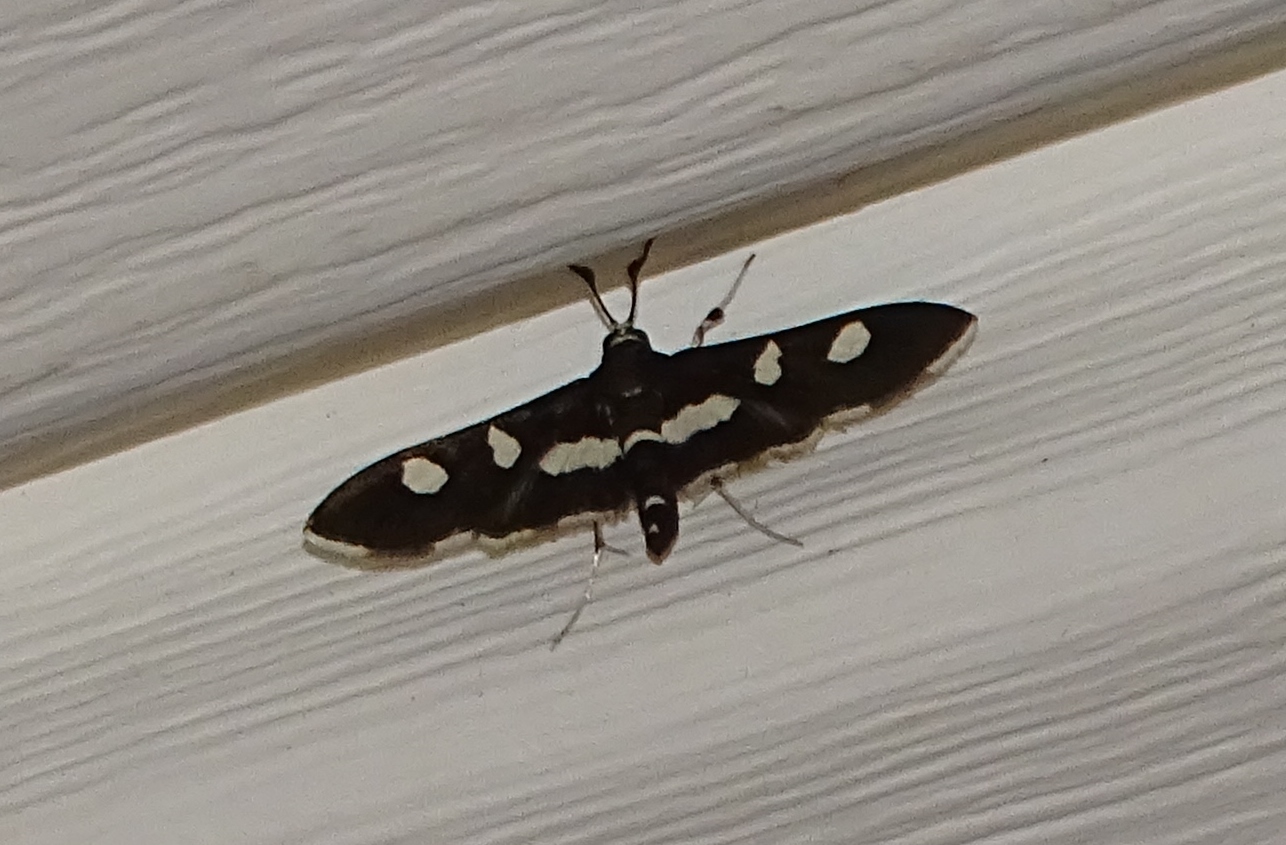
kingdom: Animalia
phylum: Arthropoda
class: Insecta
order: Lepidoptera
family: Crambidae
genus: Desmia
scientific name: Desmia
